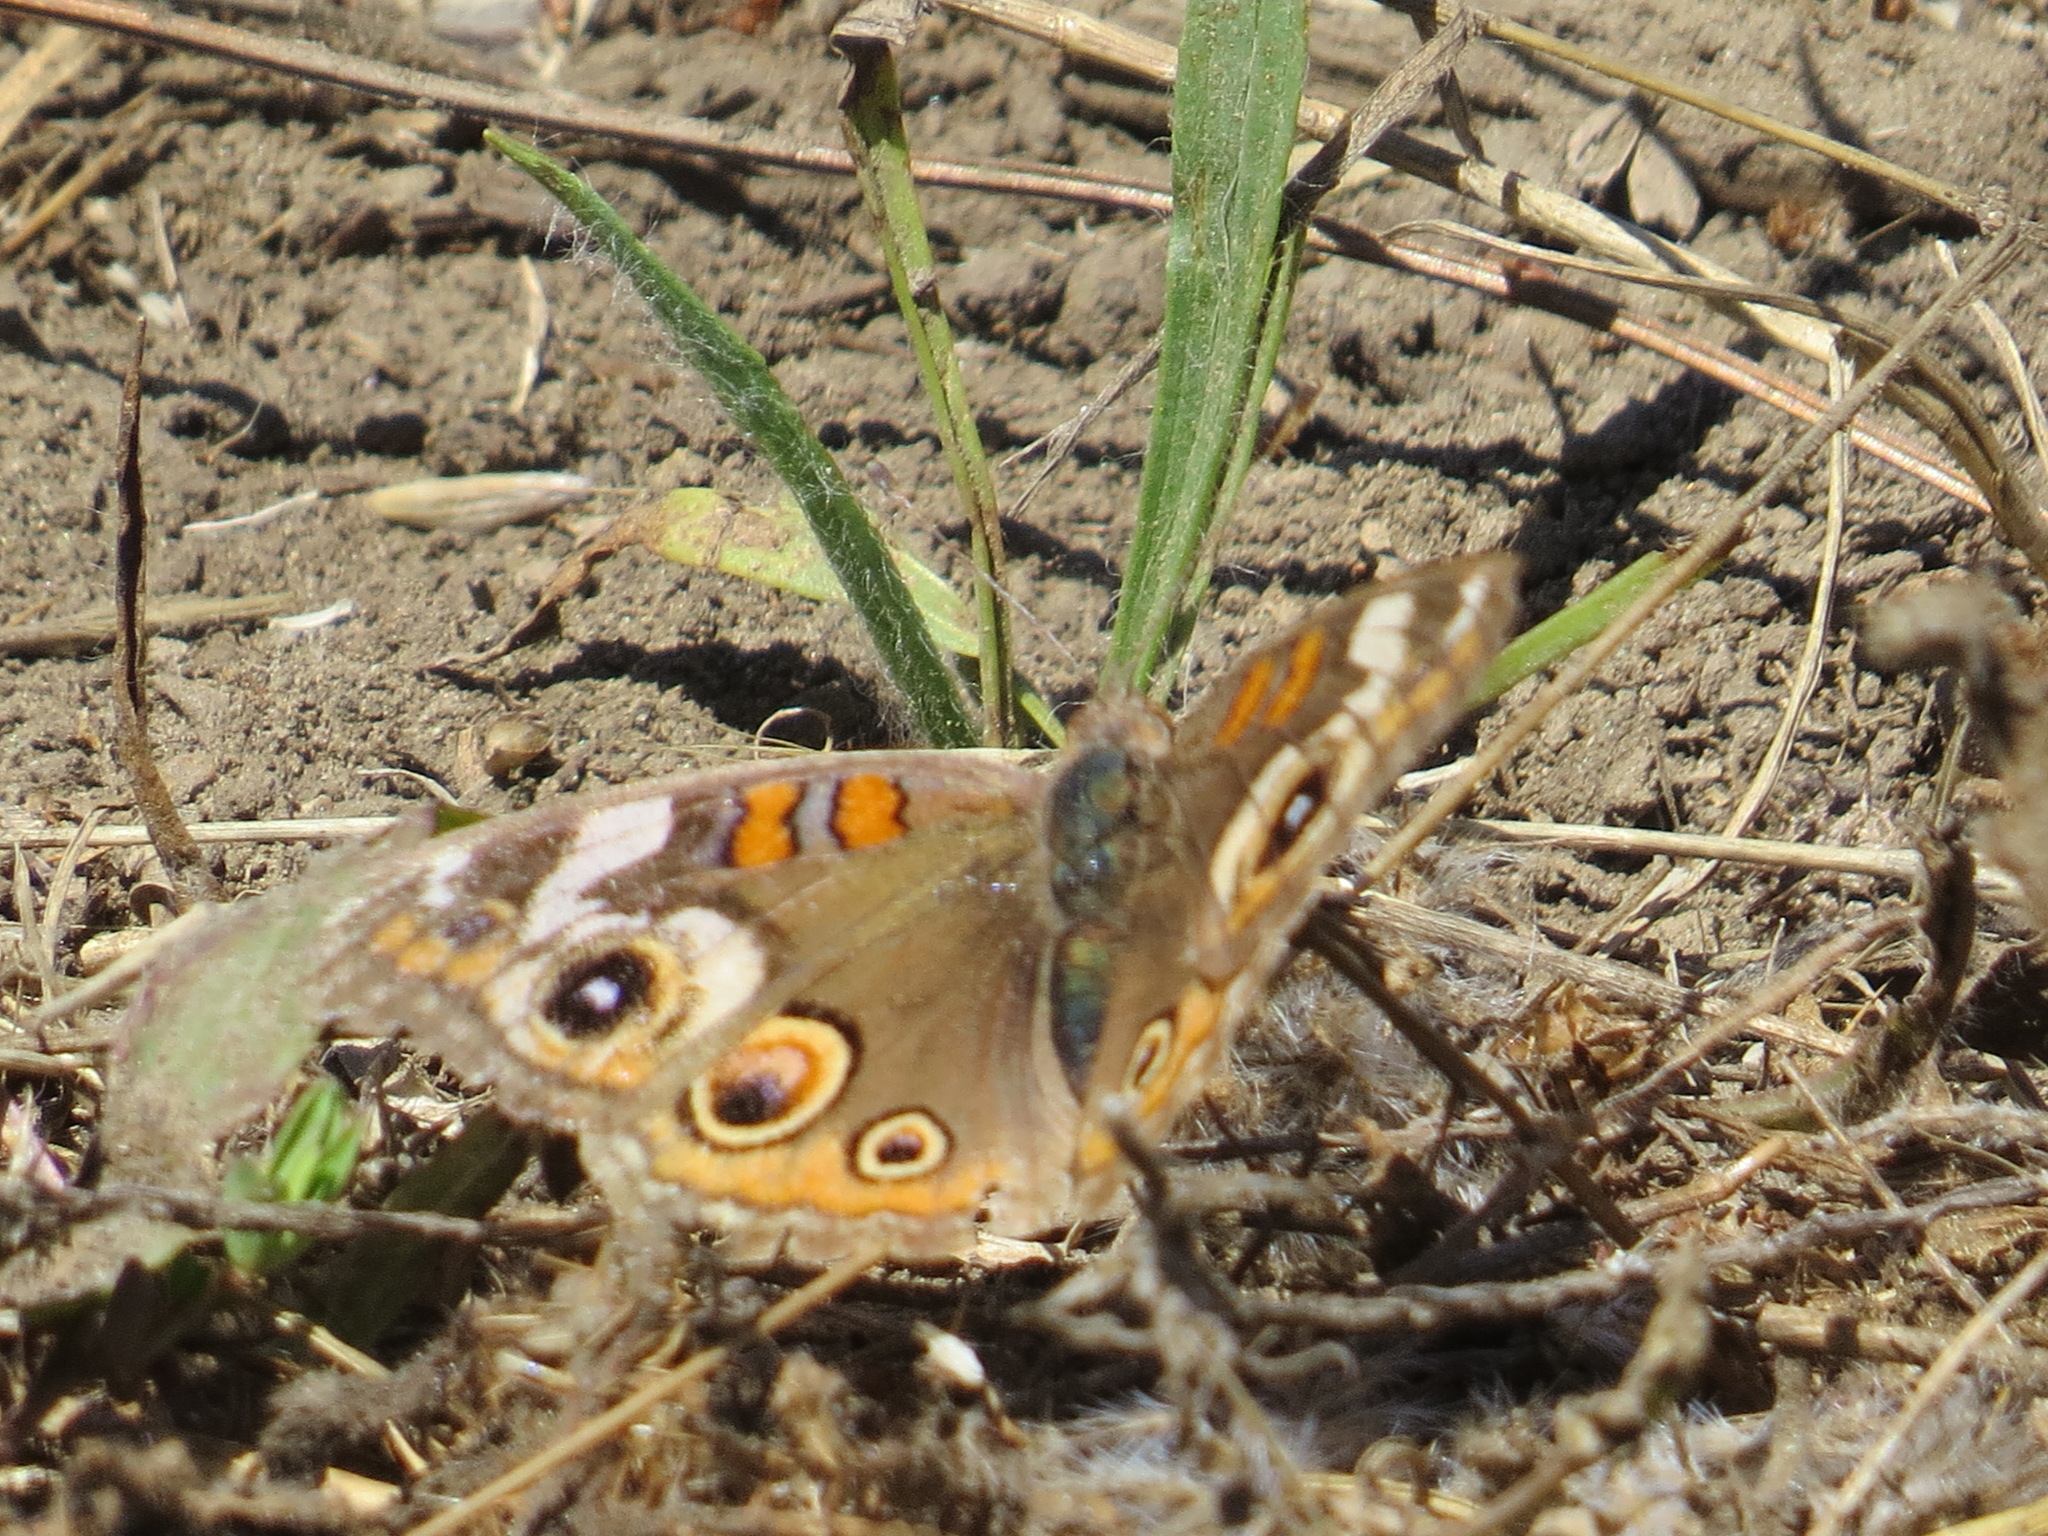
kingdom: Animalia
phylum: Arthropoda
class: Insecta
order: Lepidoptera
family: Nymphalidae
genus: Junonia
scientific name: Junonia grisea
